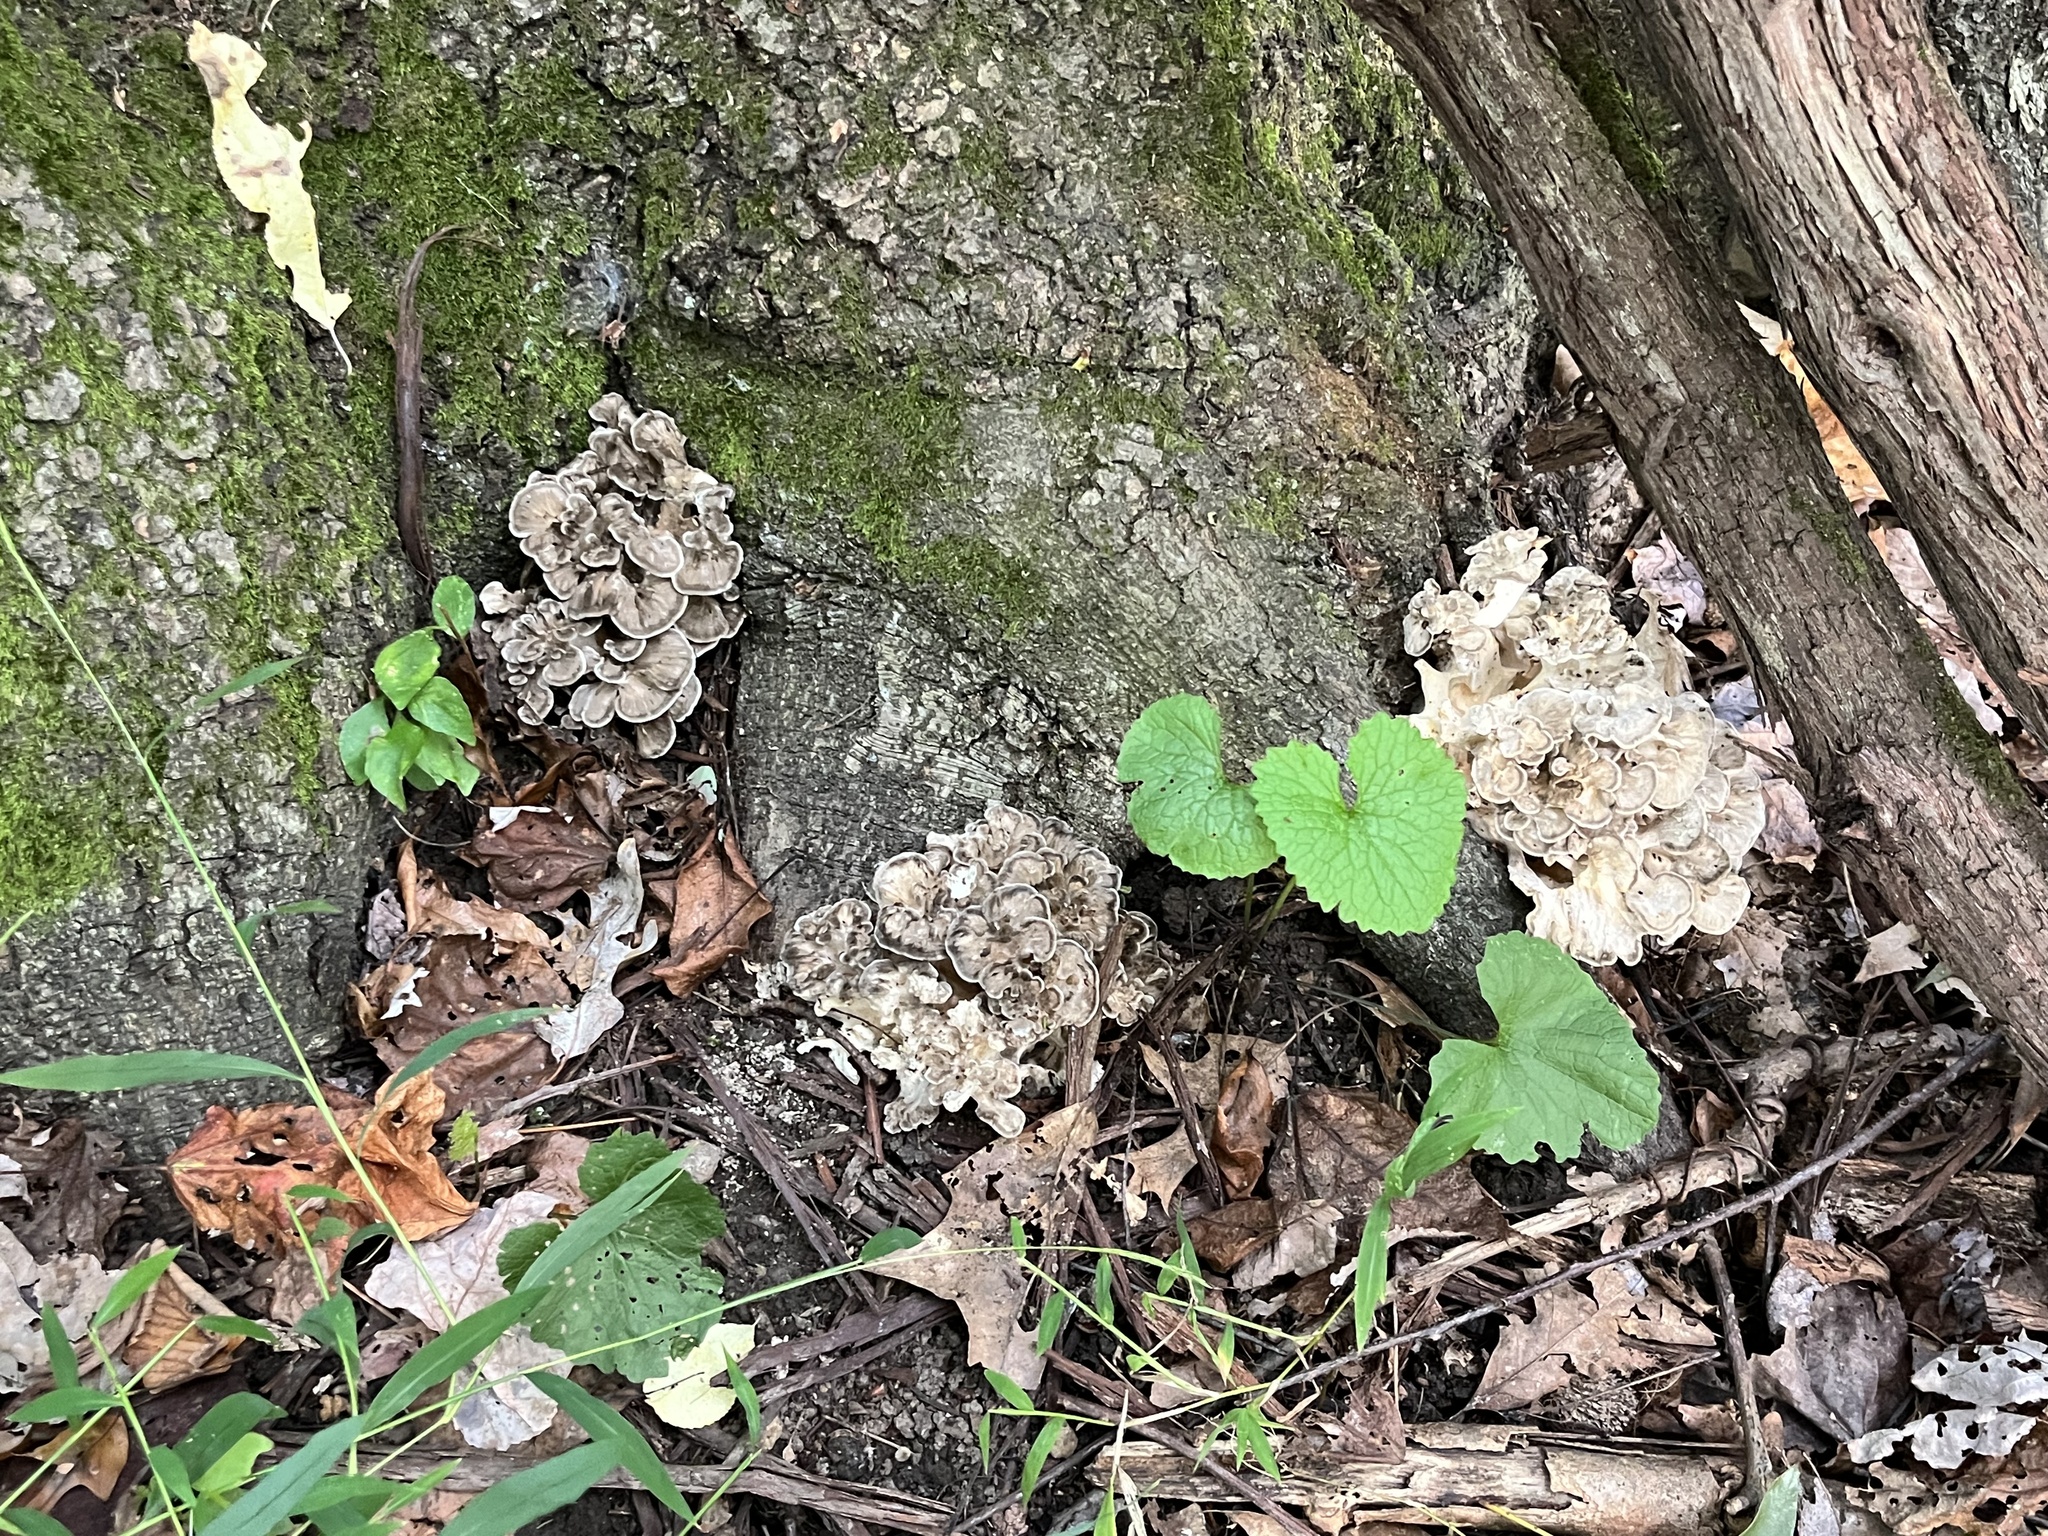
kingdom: Fungi
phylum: Basidiomycota
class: Agaricomycetes
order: Polyporales
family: Grifolaceae
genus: Grifola
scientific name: Grifola frondosa
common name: Hen of the woods
